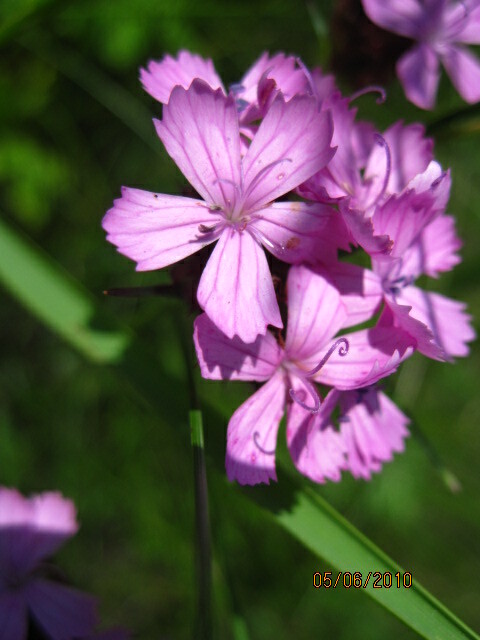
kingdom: Plantae
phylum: Tracheophyta
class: Magnoliopsida
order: Caryophyllales
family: Caryophyllaceae
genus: Dianthus
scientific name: Dianthus capitatus
